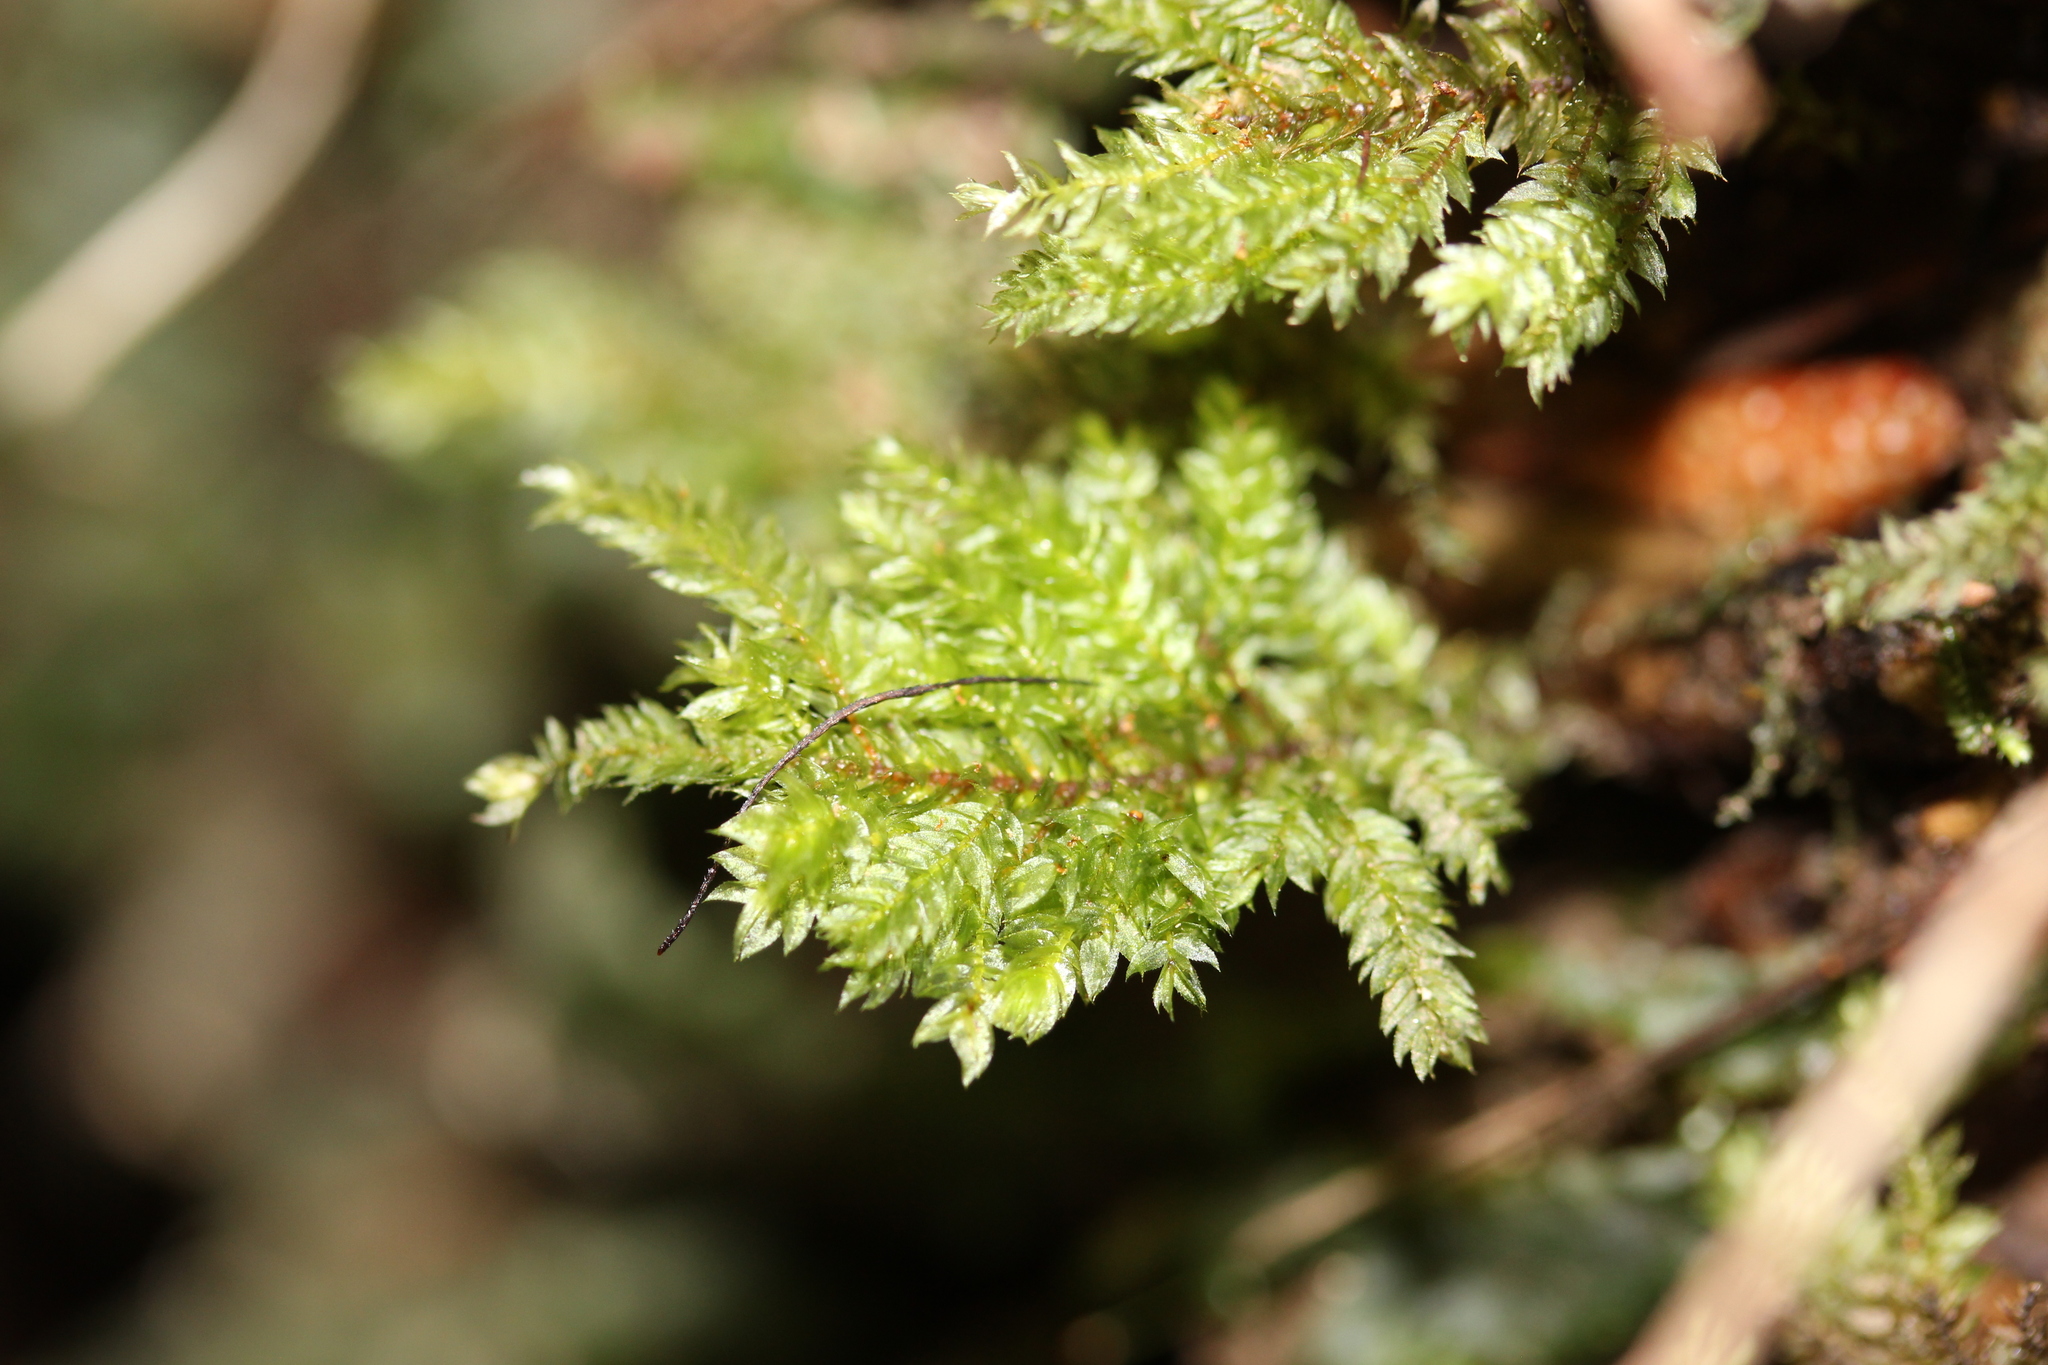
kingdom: Plantae
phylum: Bryophyta
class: Bryopsida
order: Hypnodendrales
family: Spiridentaceae
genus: Hypnodendron
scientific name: Hypnodendron arcuatum
